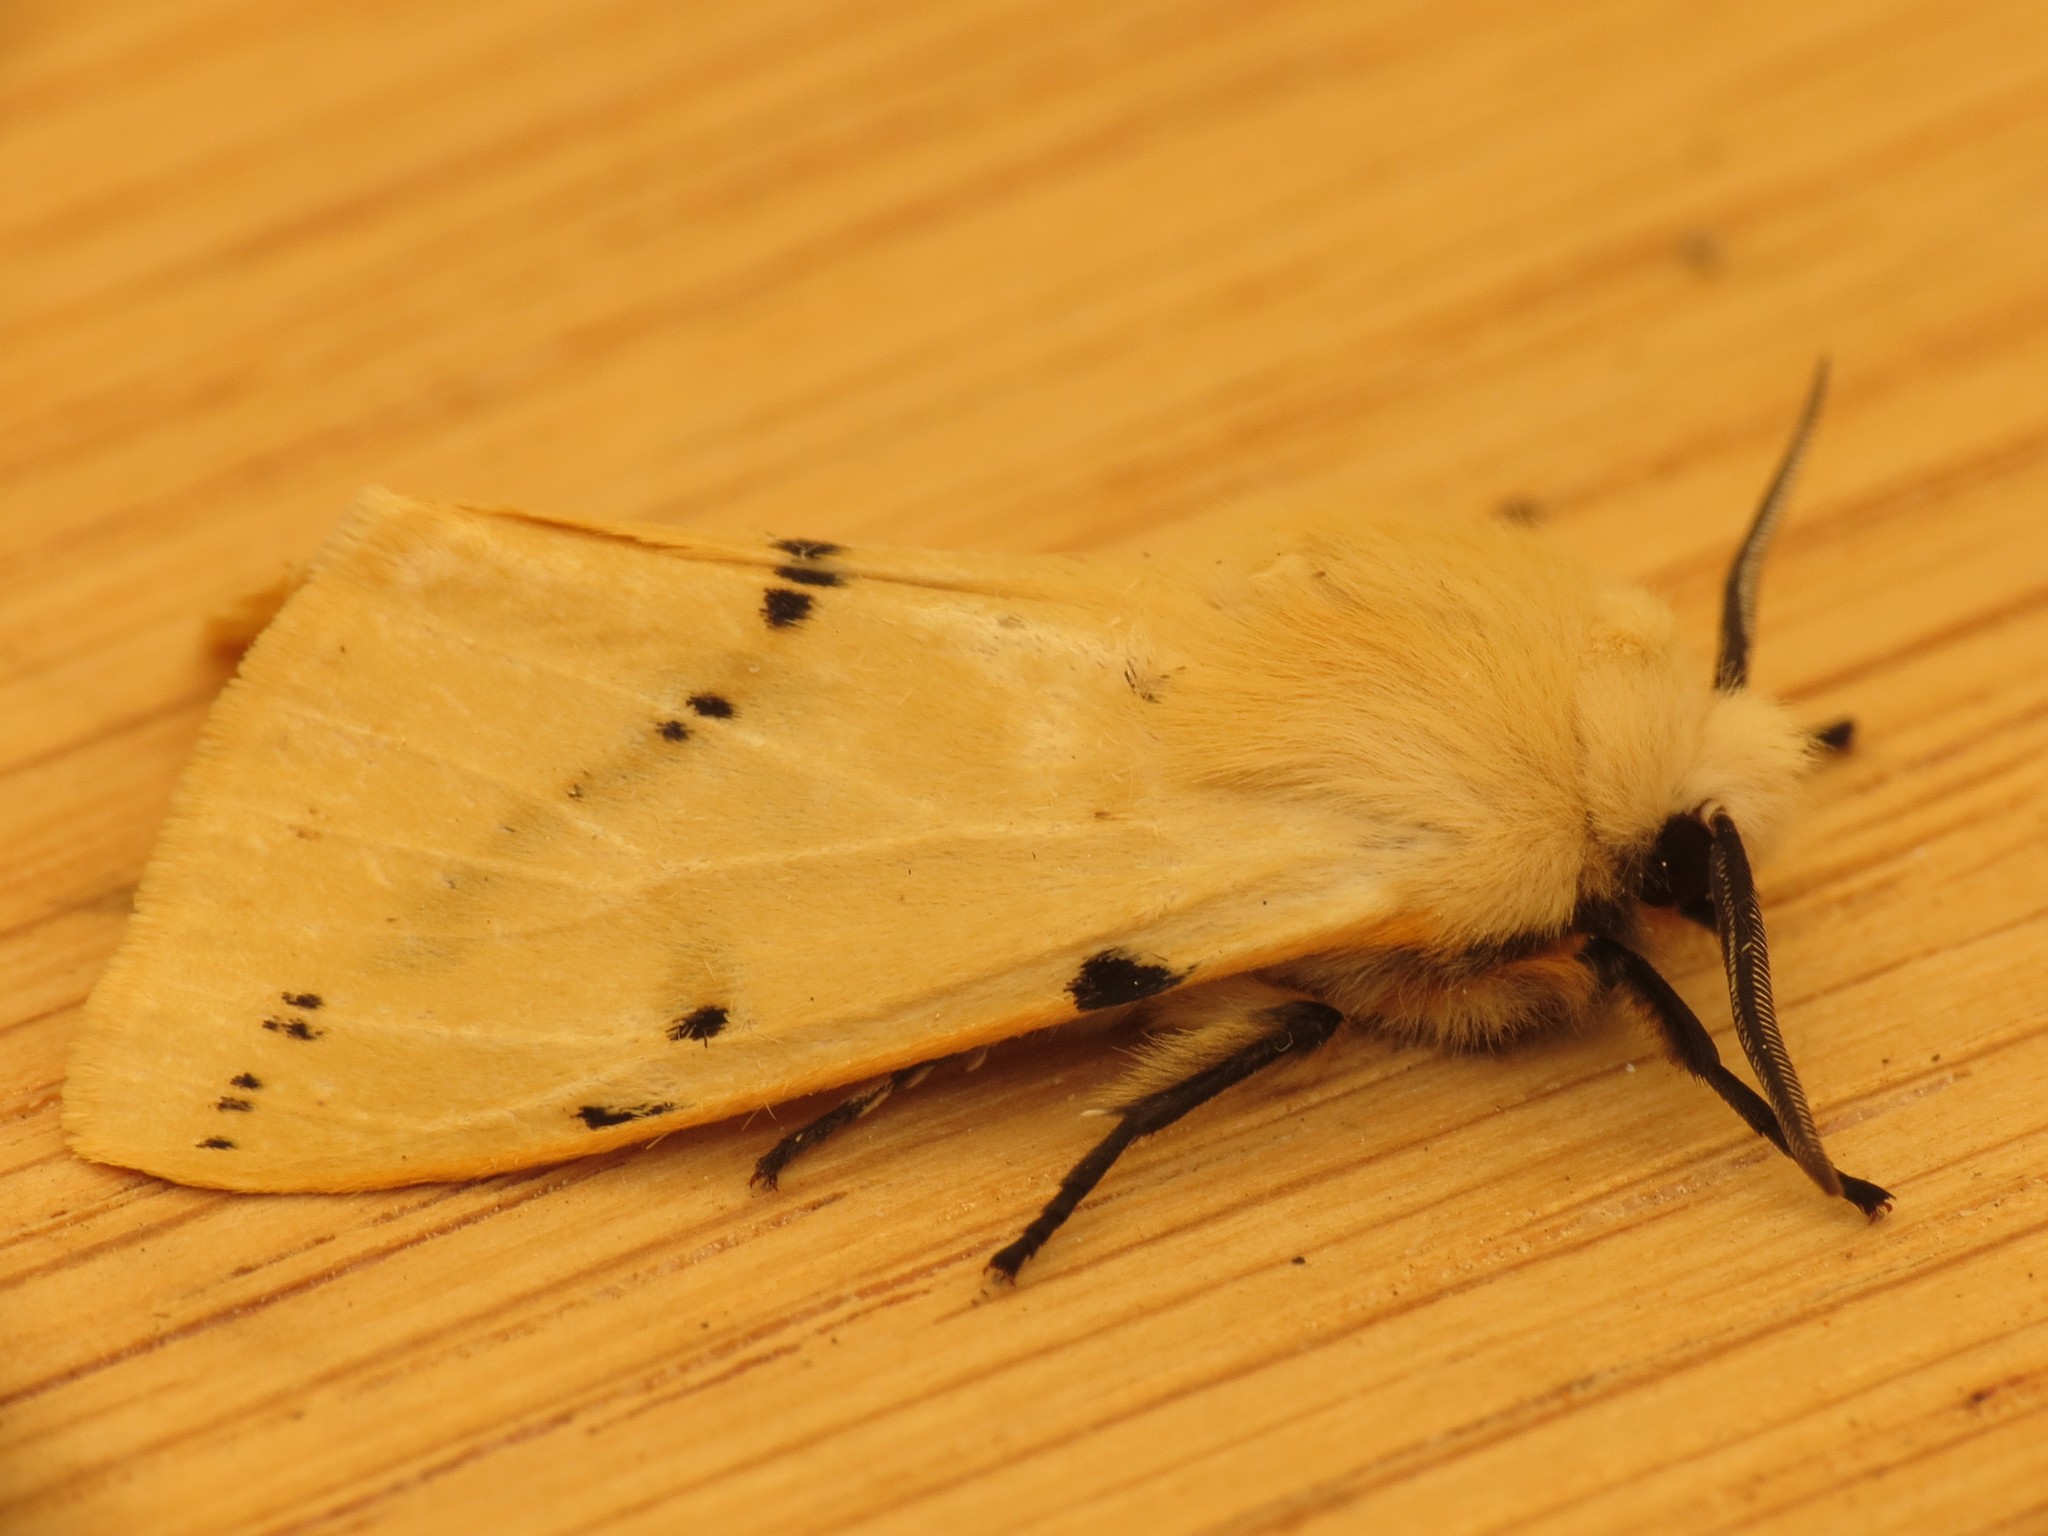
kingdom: Animalia
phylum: Arthropoda
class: Insecta
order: Lepidoptera
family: Erebidae
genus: Spilarctia
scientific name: Spilarctia lutea
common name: Buff ermine
